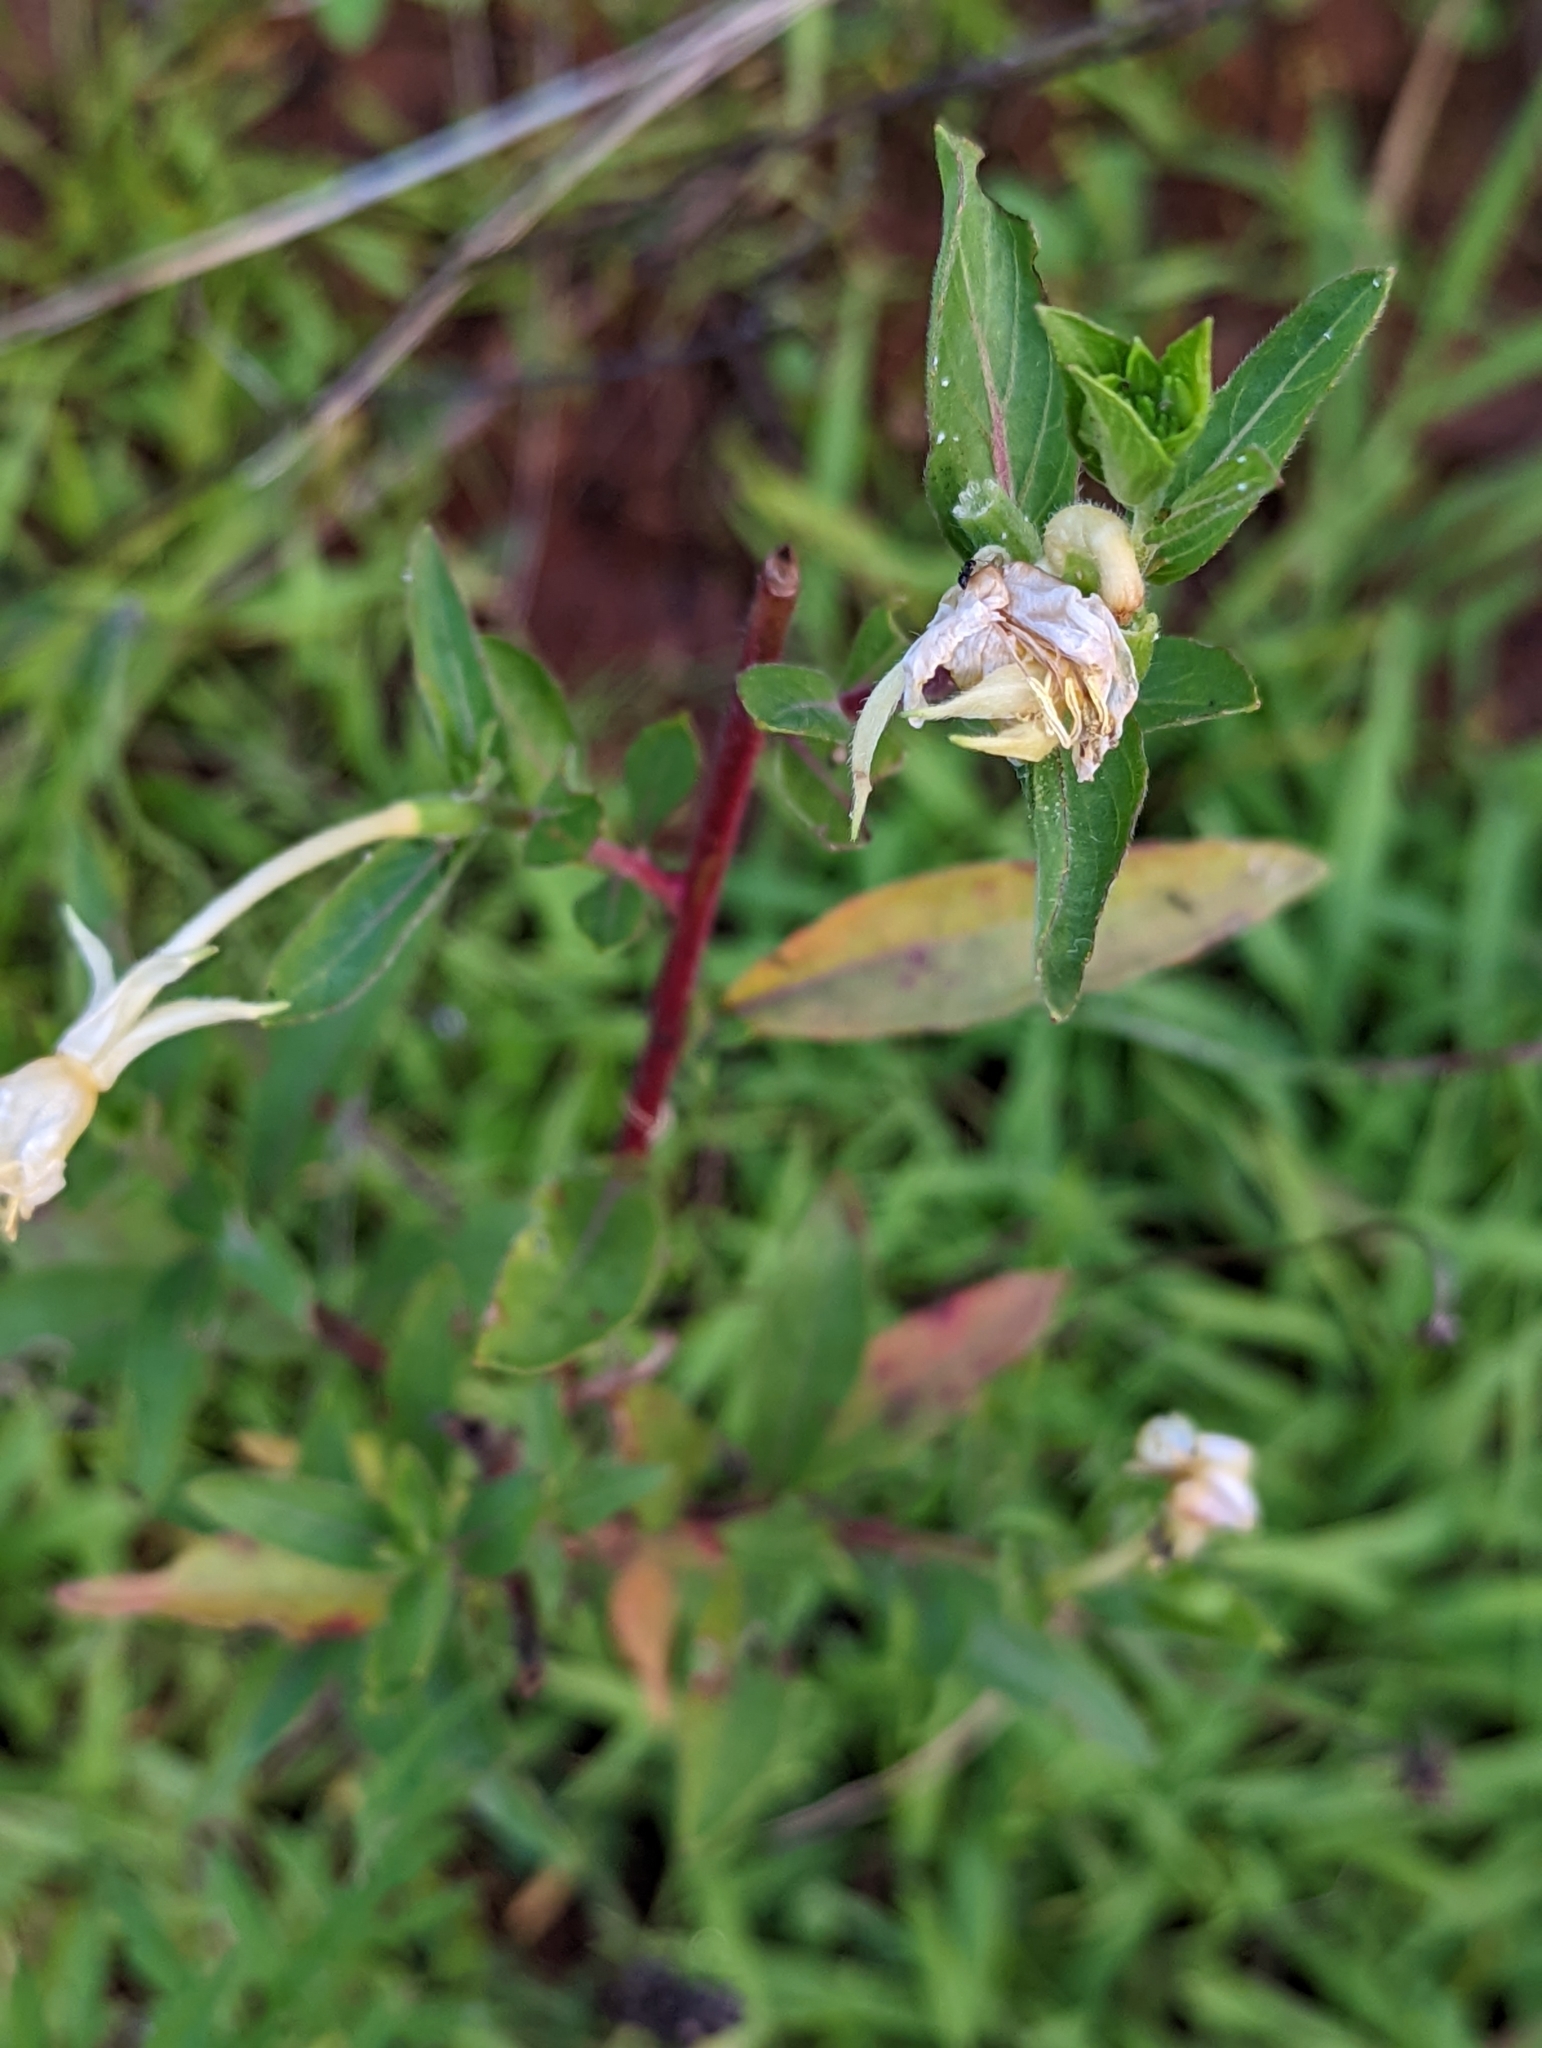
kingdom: Plantae
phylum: Tracheophyta
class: Magnoliopsida
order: Myrtales
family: Onagraceae
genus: Oenothera
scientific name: Oenothera biennis
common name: Common evening-primrose
